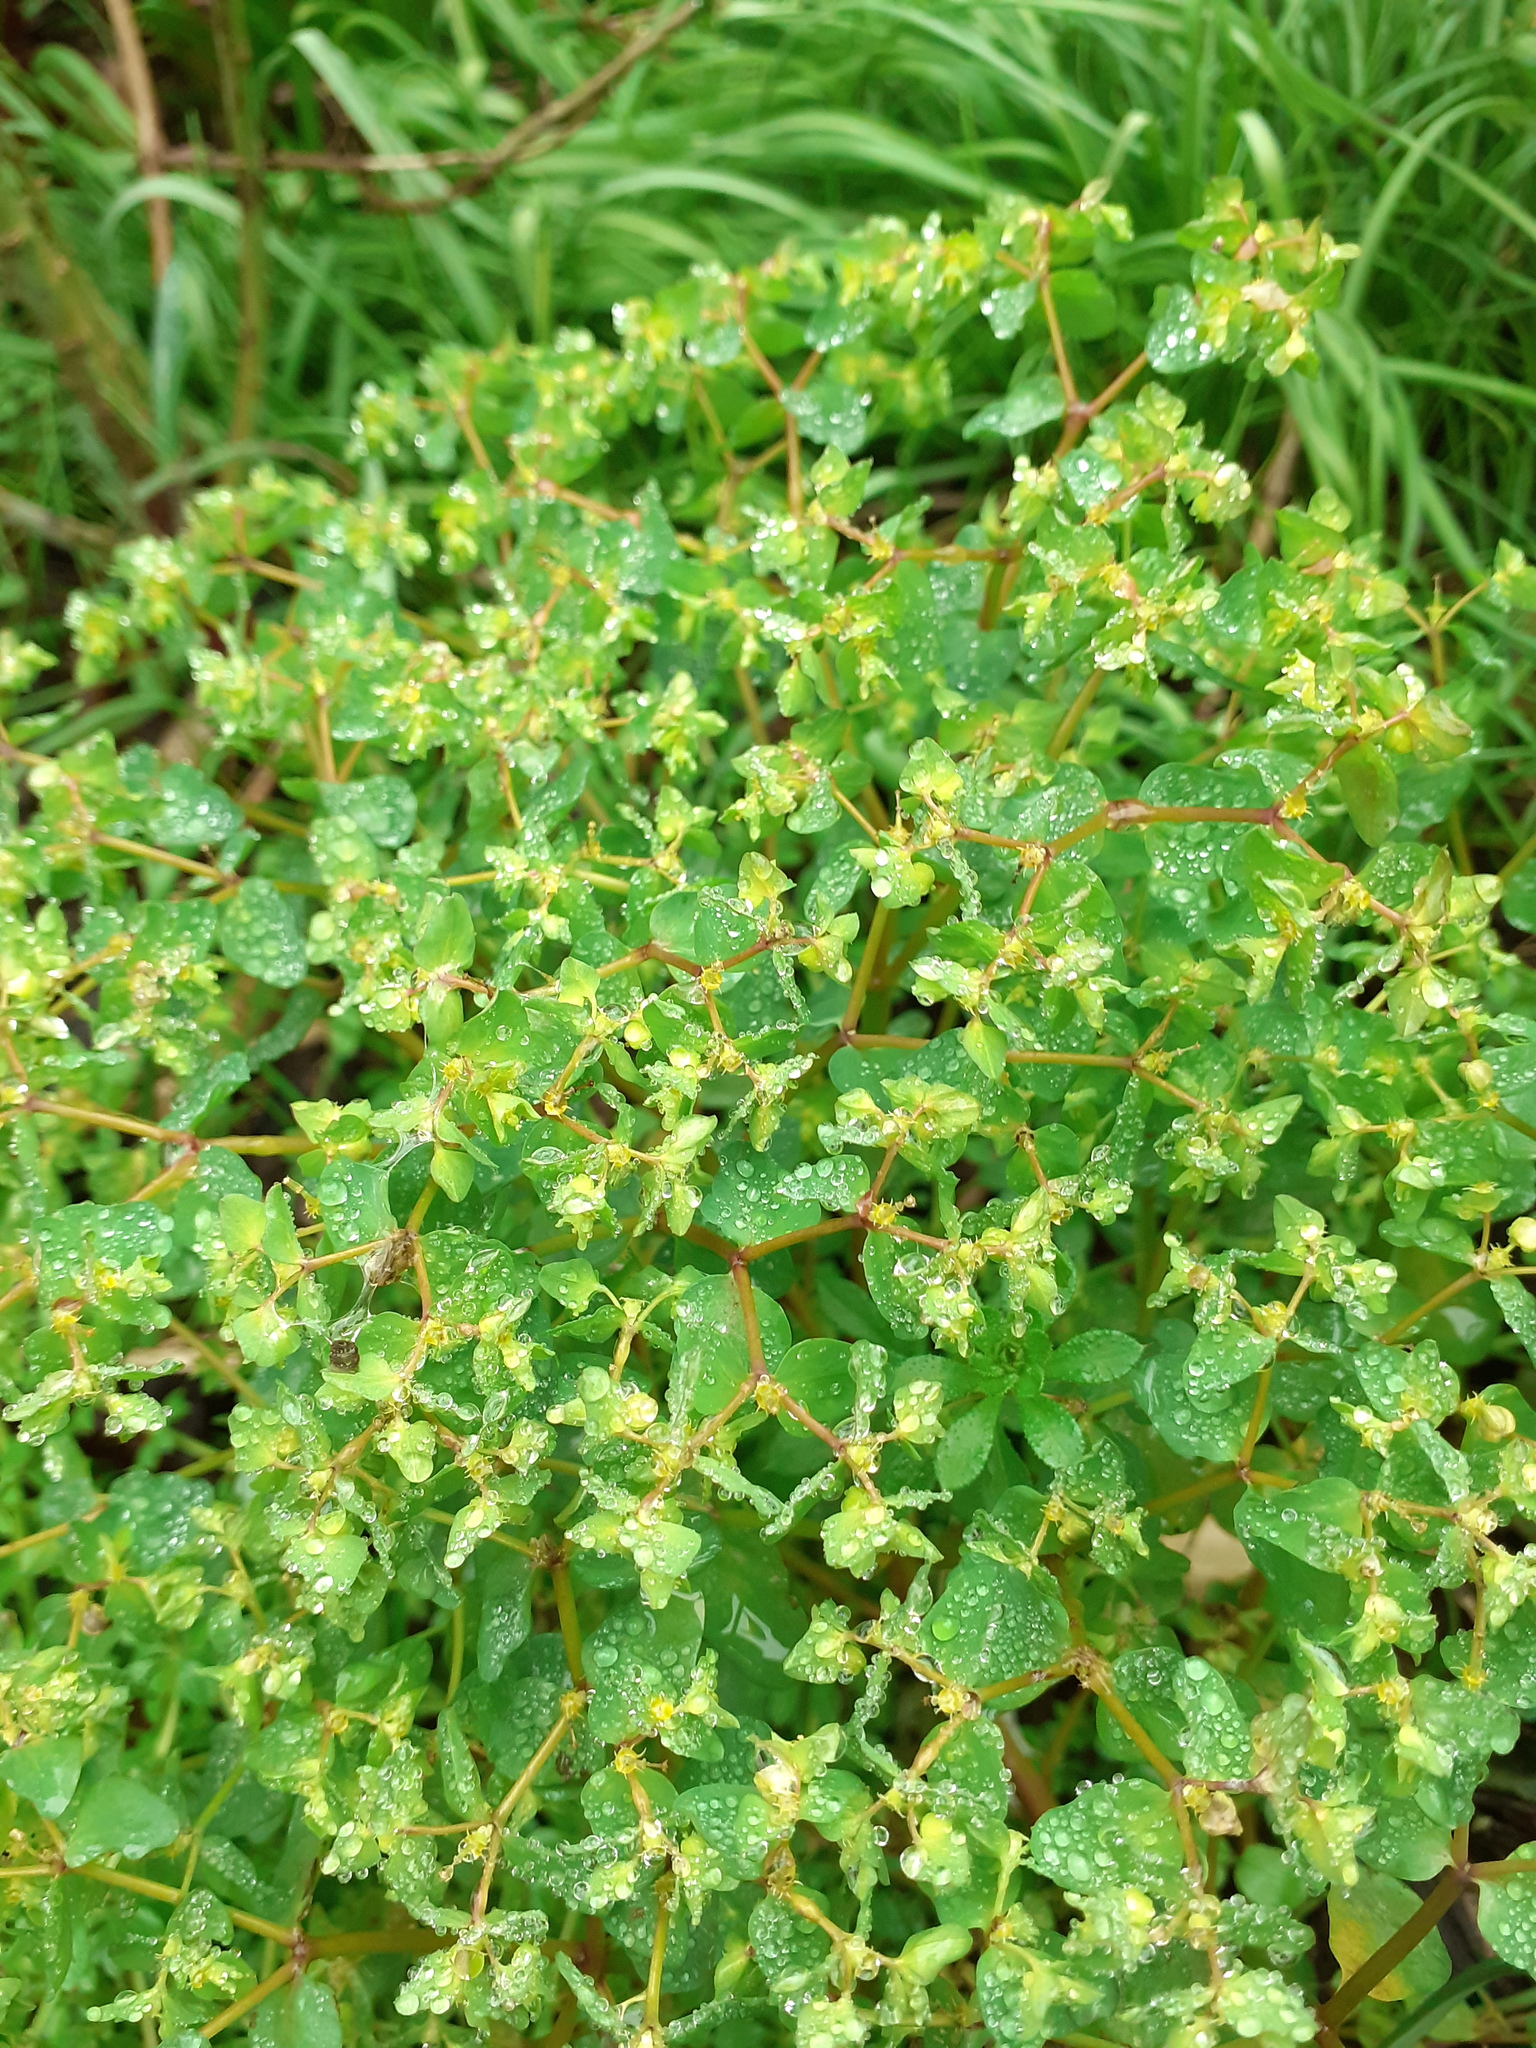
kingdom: Plantae
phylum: Tracheophyta
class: Magnoliopsida
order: Malpighiales
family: Euphorbiaceae
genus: Euphorbia
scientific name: Euphorbia peplus
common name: Petty spurge
